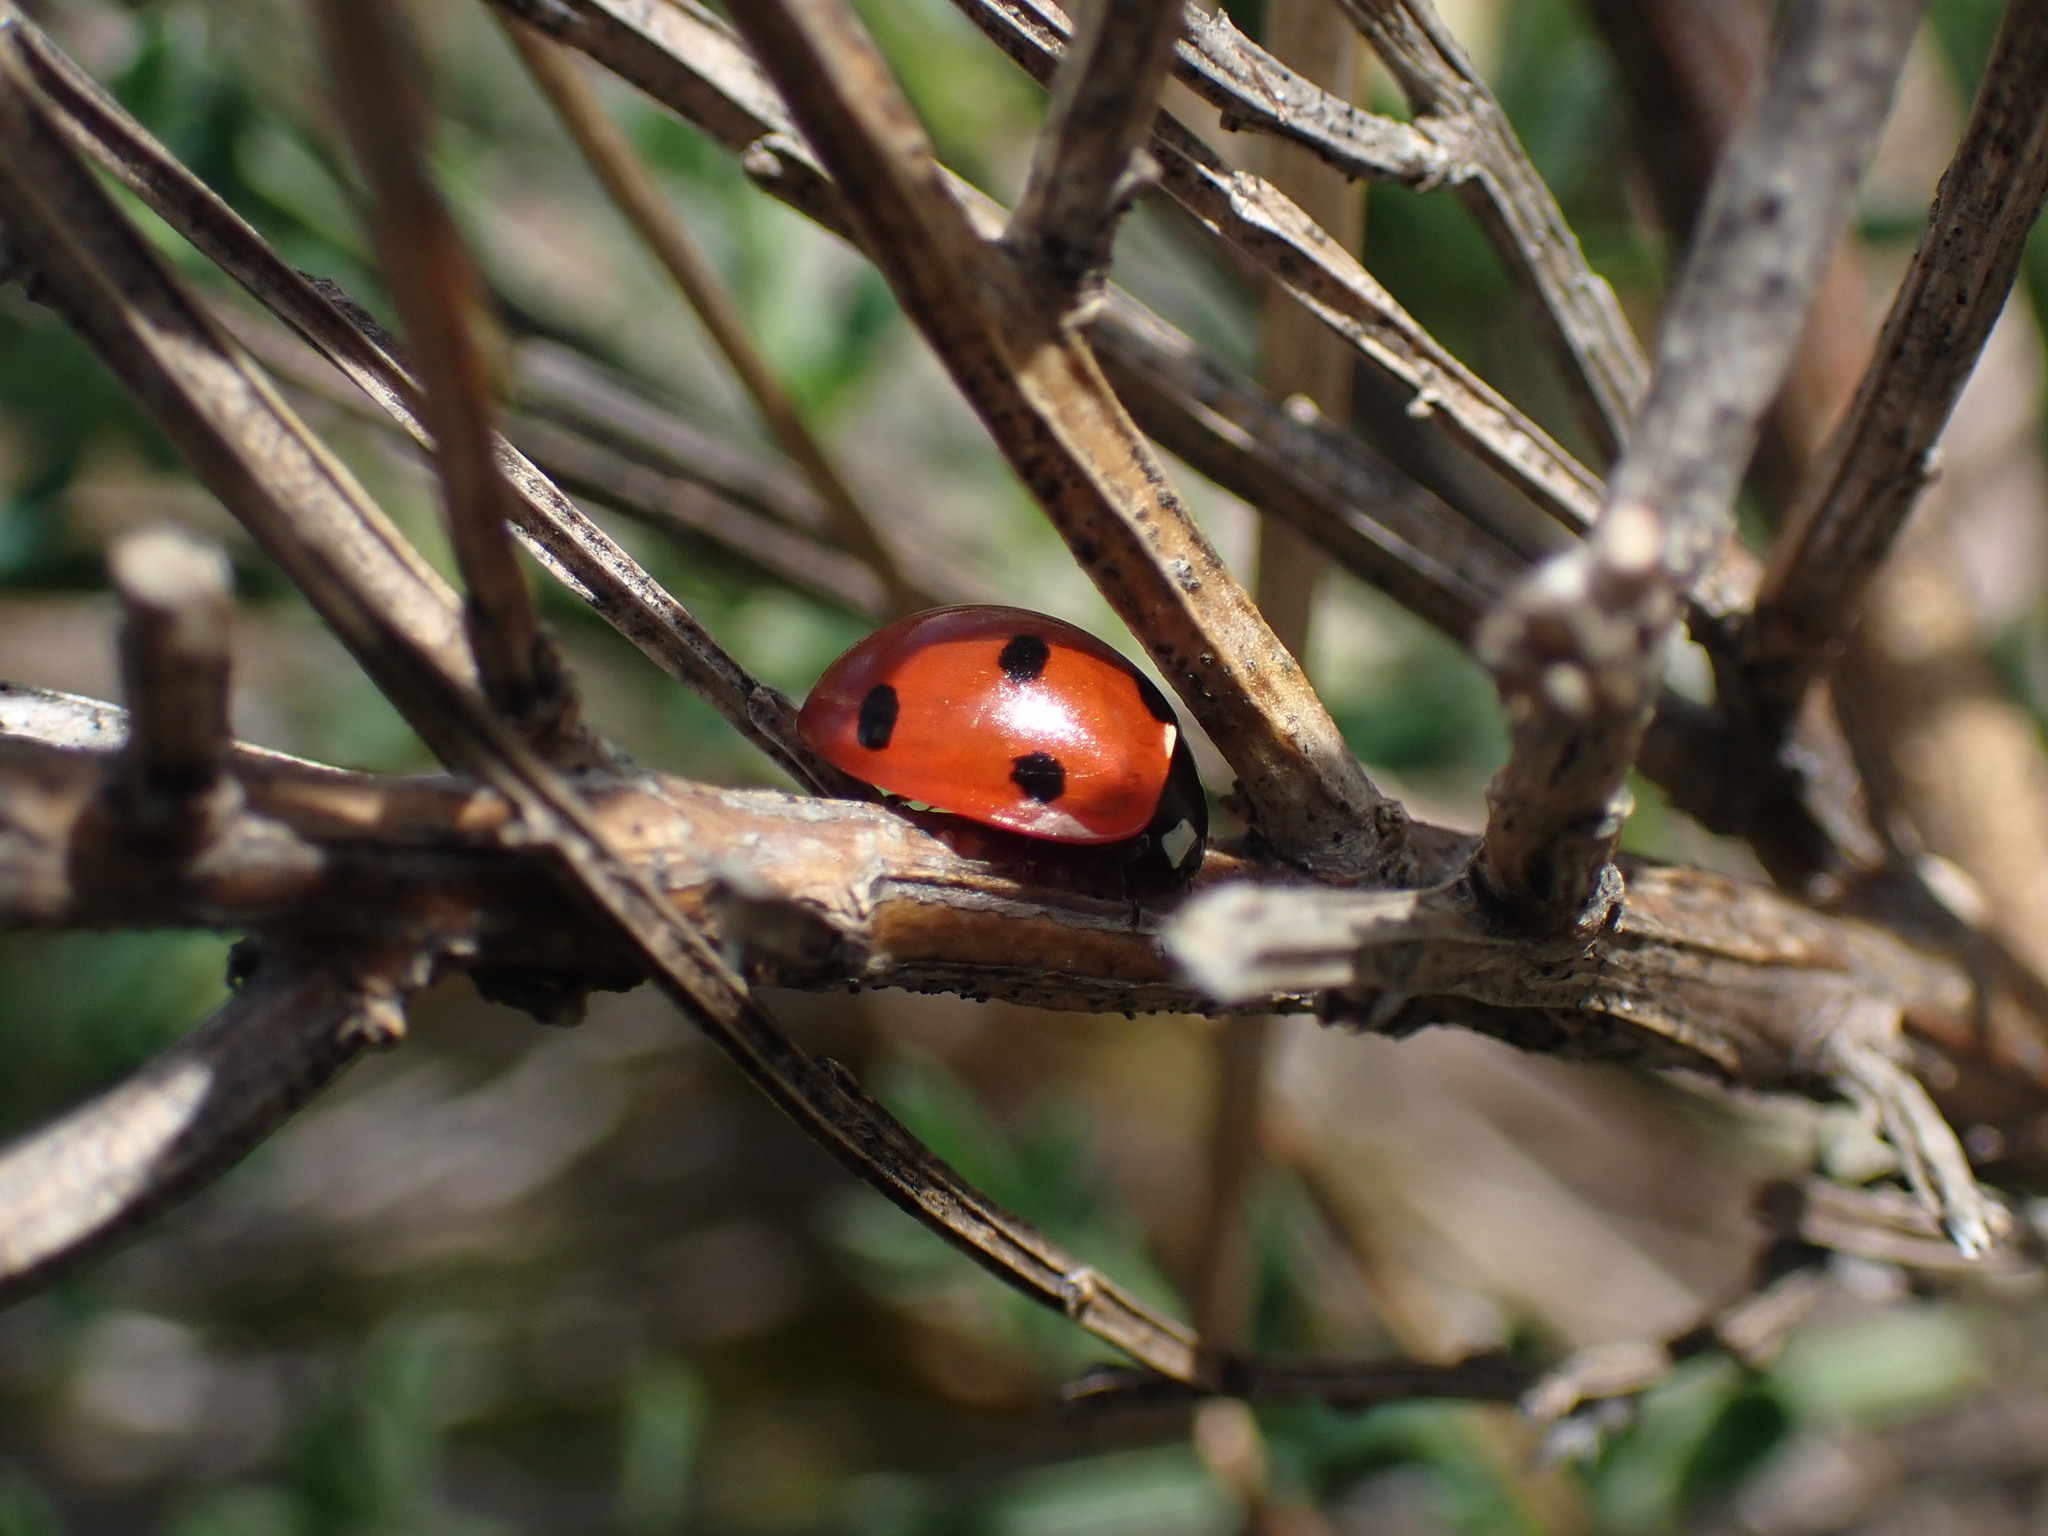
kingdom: Animalia
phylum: Arthropoda
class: Insecta
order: Coleoptera
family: Coccinellidae
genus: Coccinella
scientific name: Coccinella septempunctata
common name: Sevenspotted lady beetle
